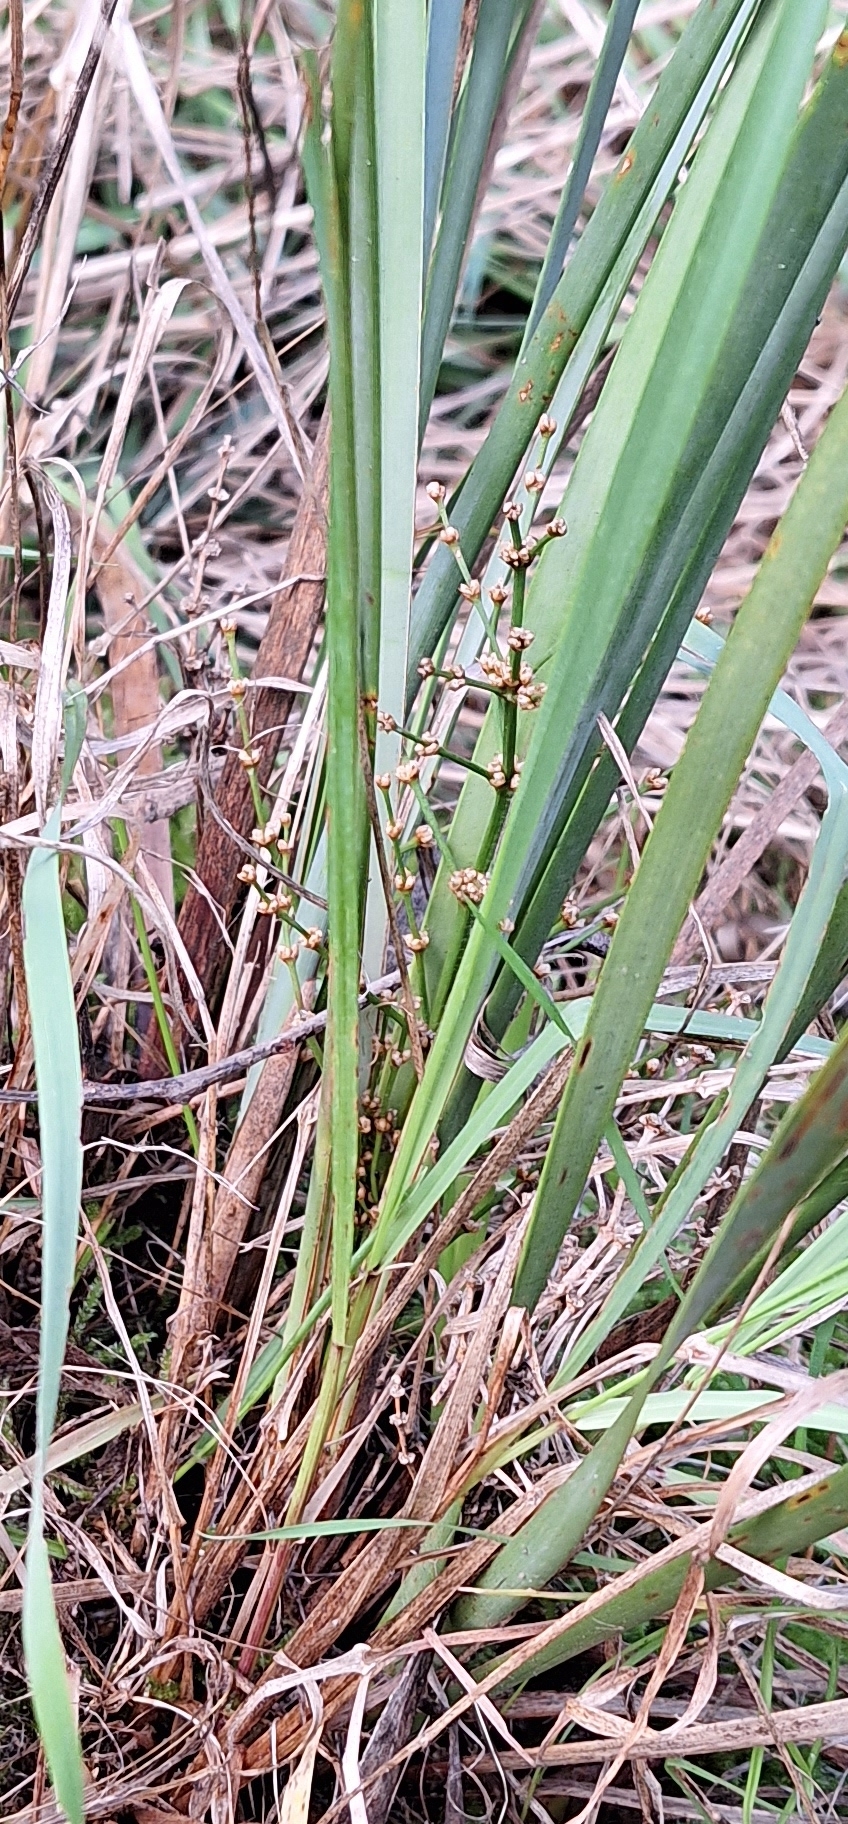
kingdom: Plantae
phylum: Tracheophyta
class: Liliopsida
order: Asparagales
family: Asparagaceae
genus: Lomandra
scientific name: Lomandra multiflora
